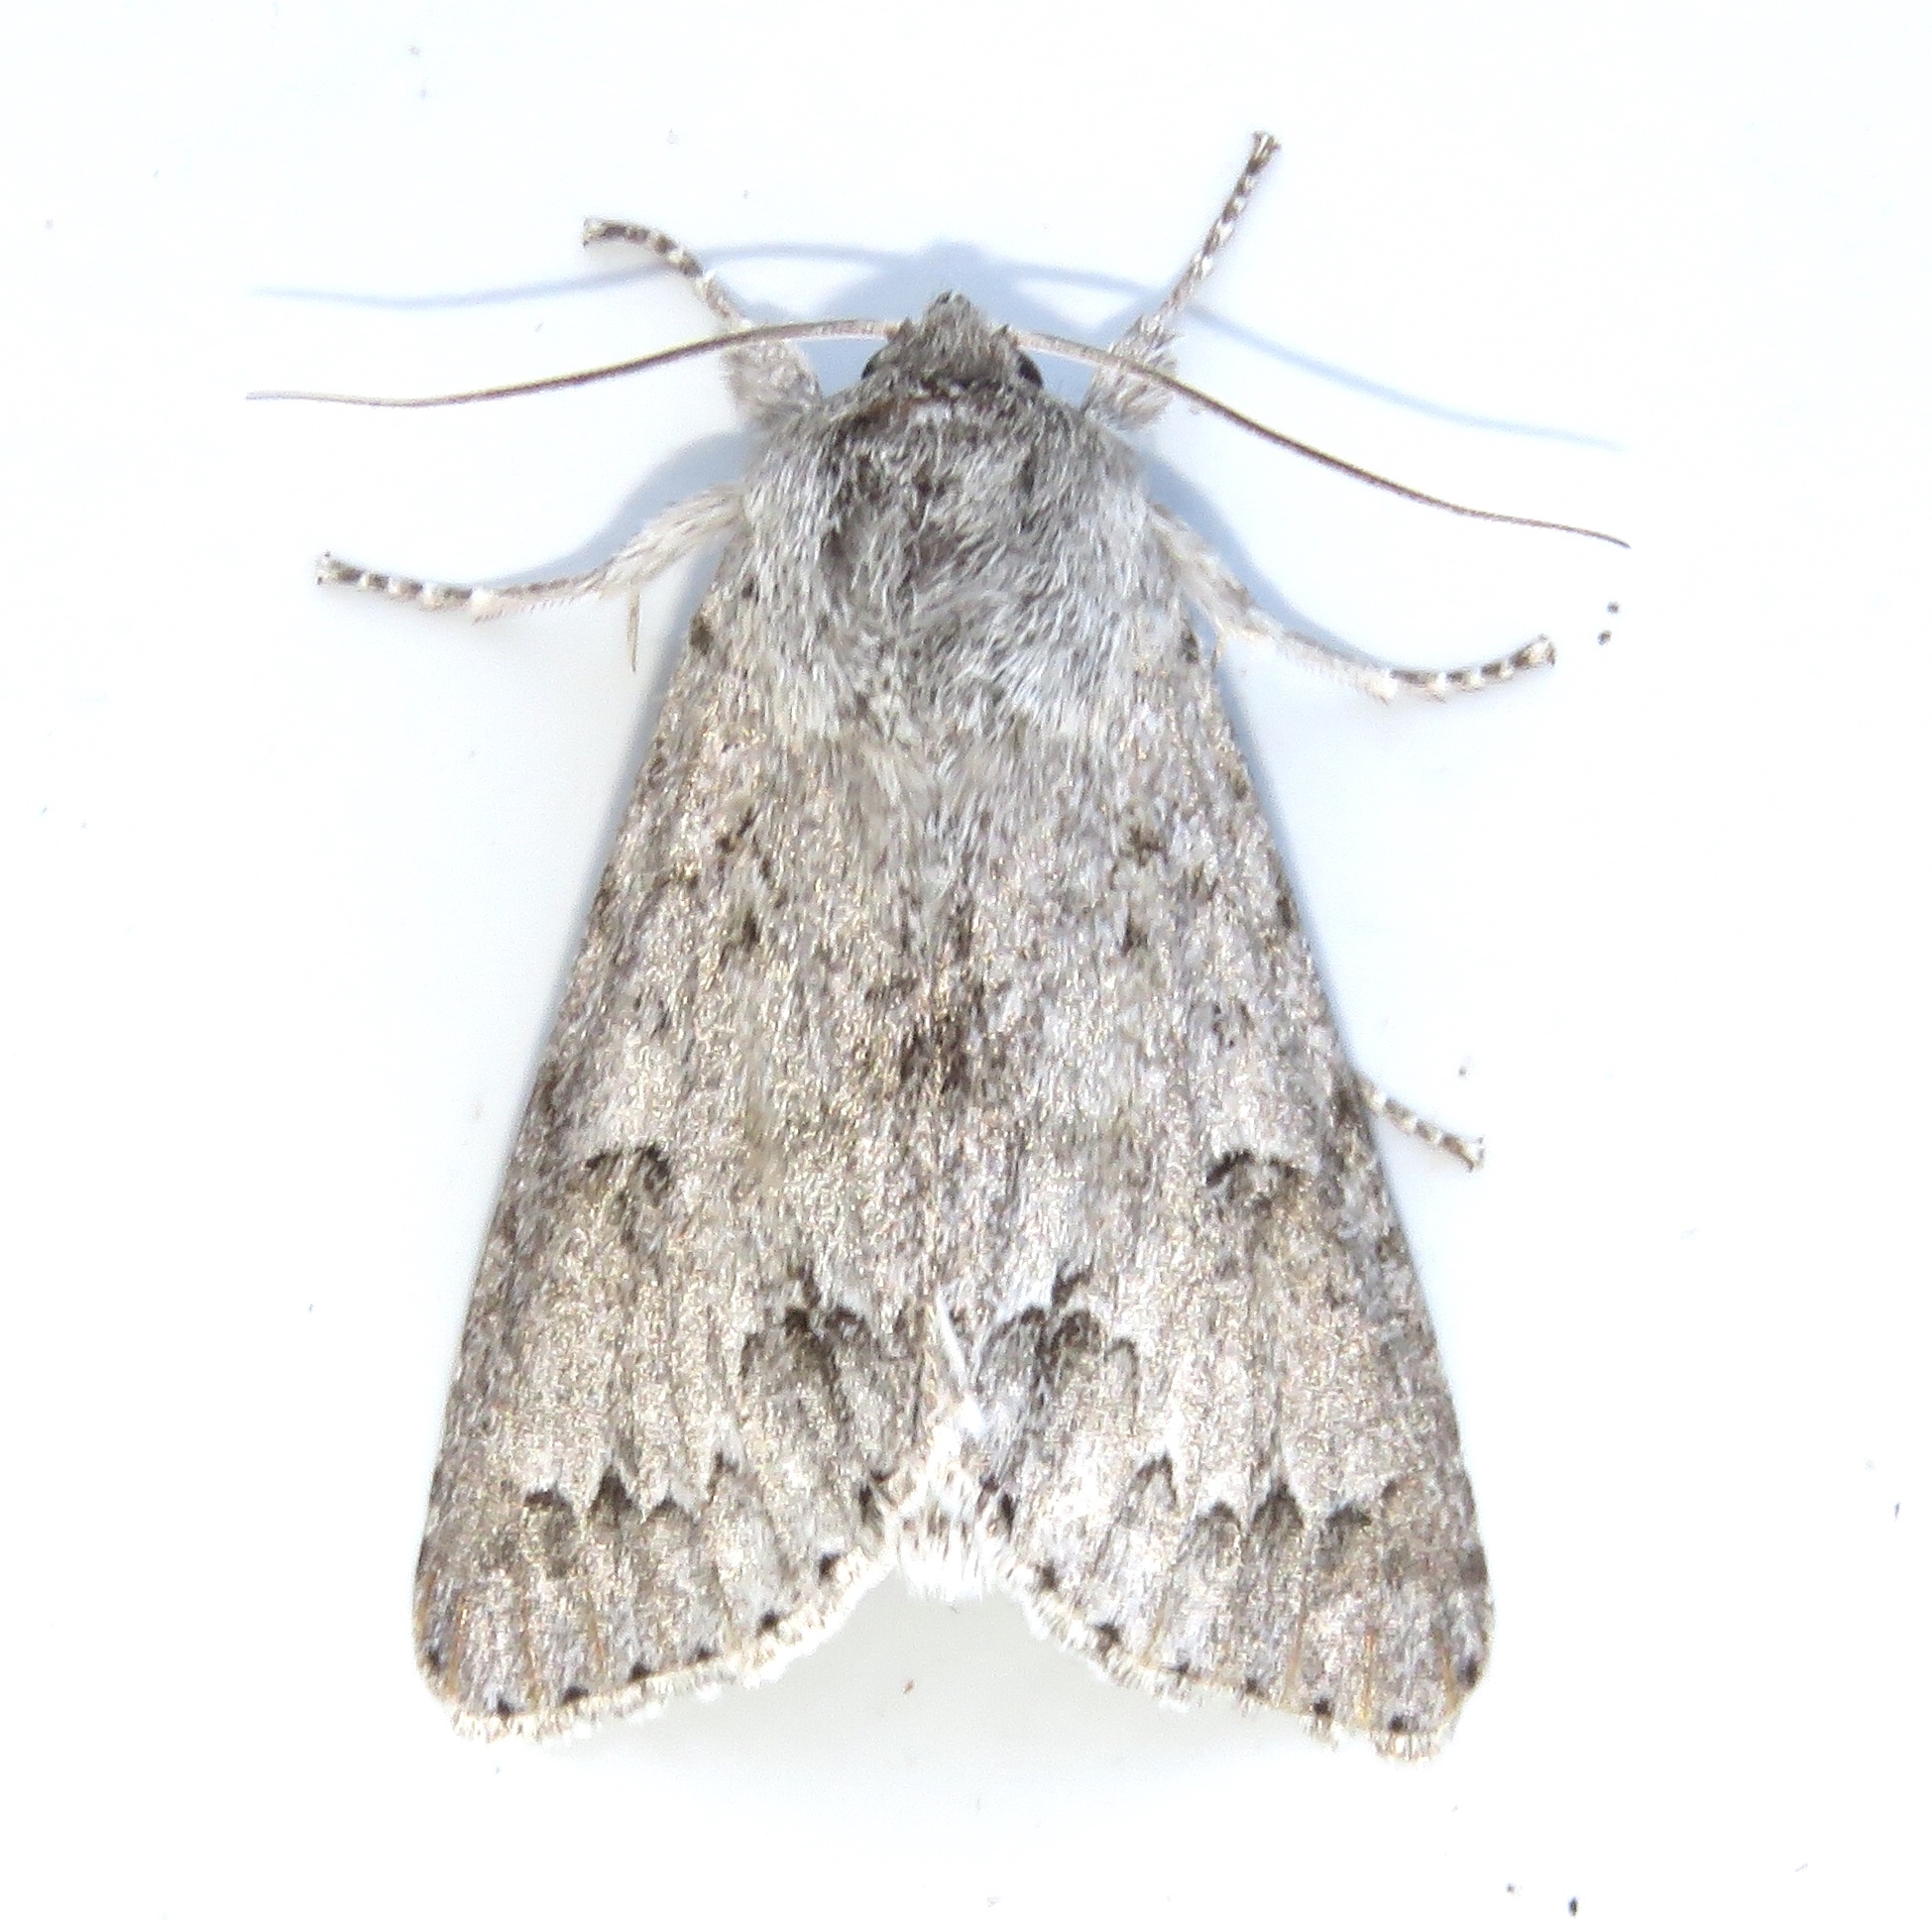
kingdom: Animalia
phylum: Arthropoda
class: Insecta
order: Lepidoptera
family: Noctuidae
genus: Acronicta
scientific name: Acronicta insita
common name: Large gray dagger
